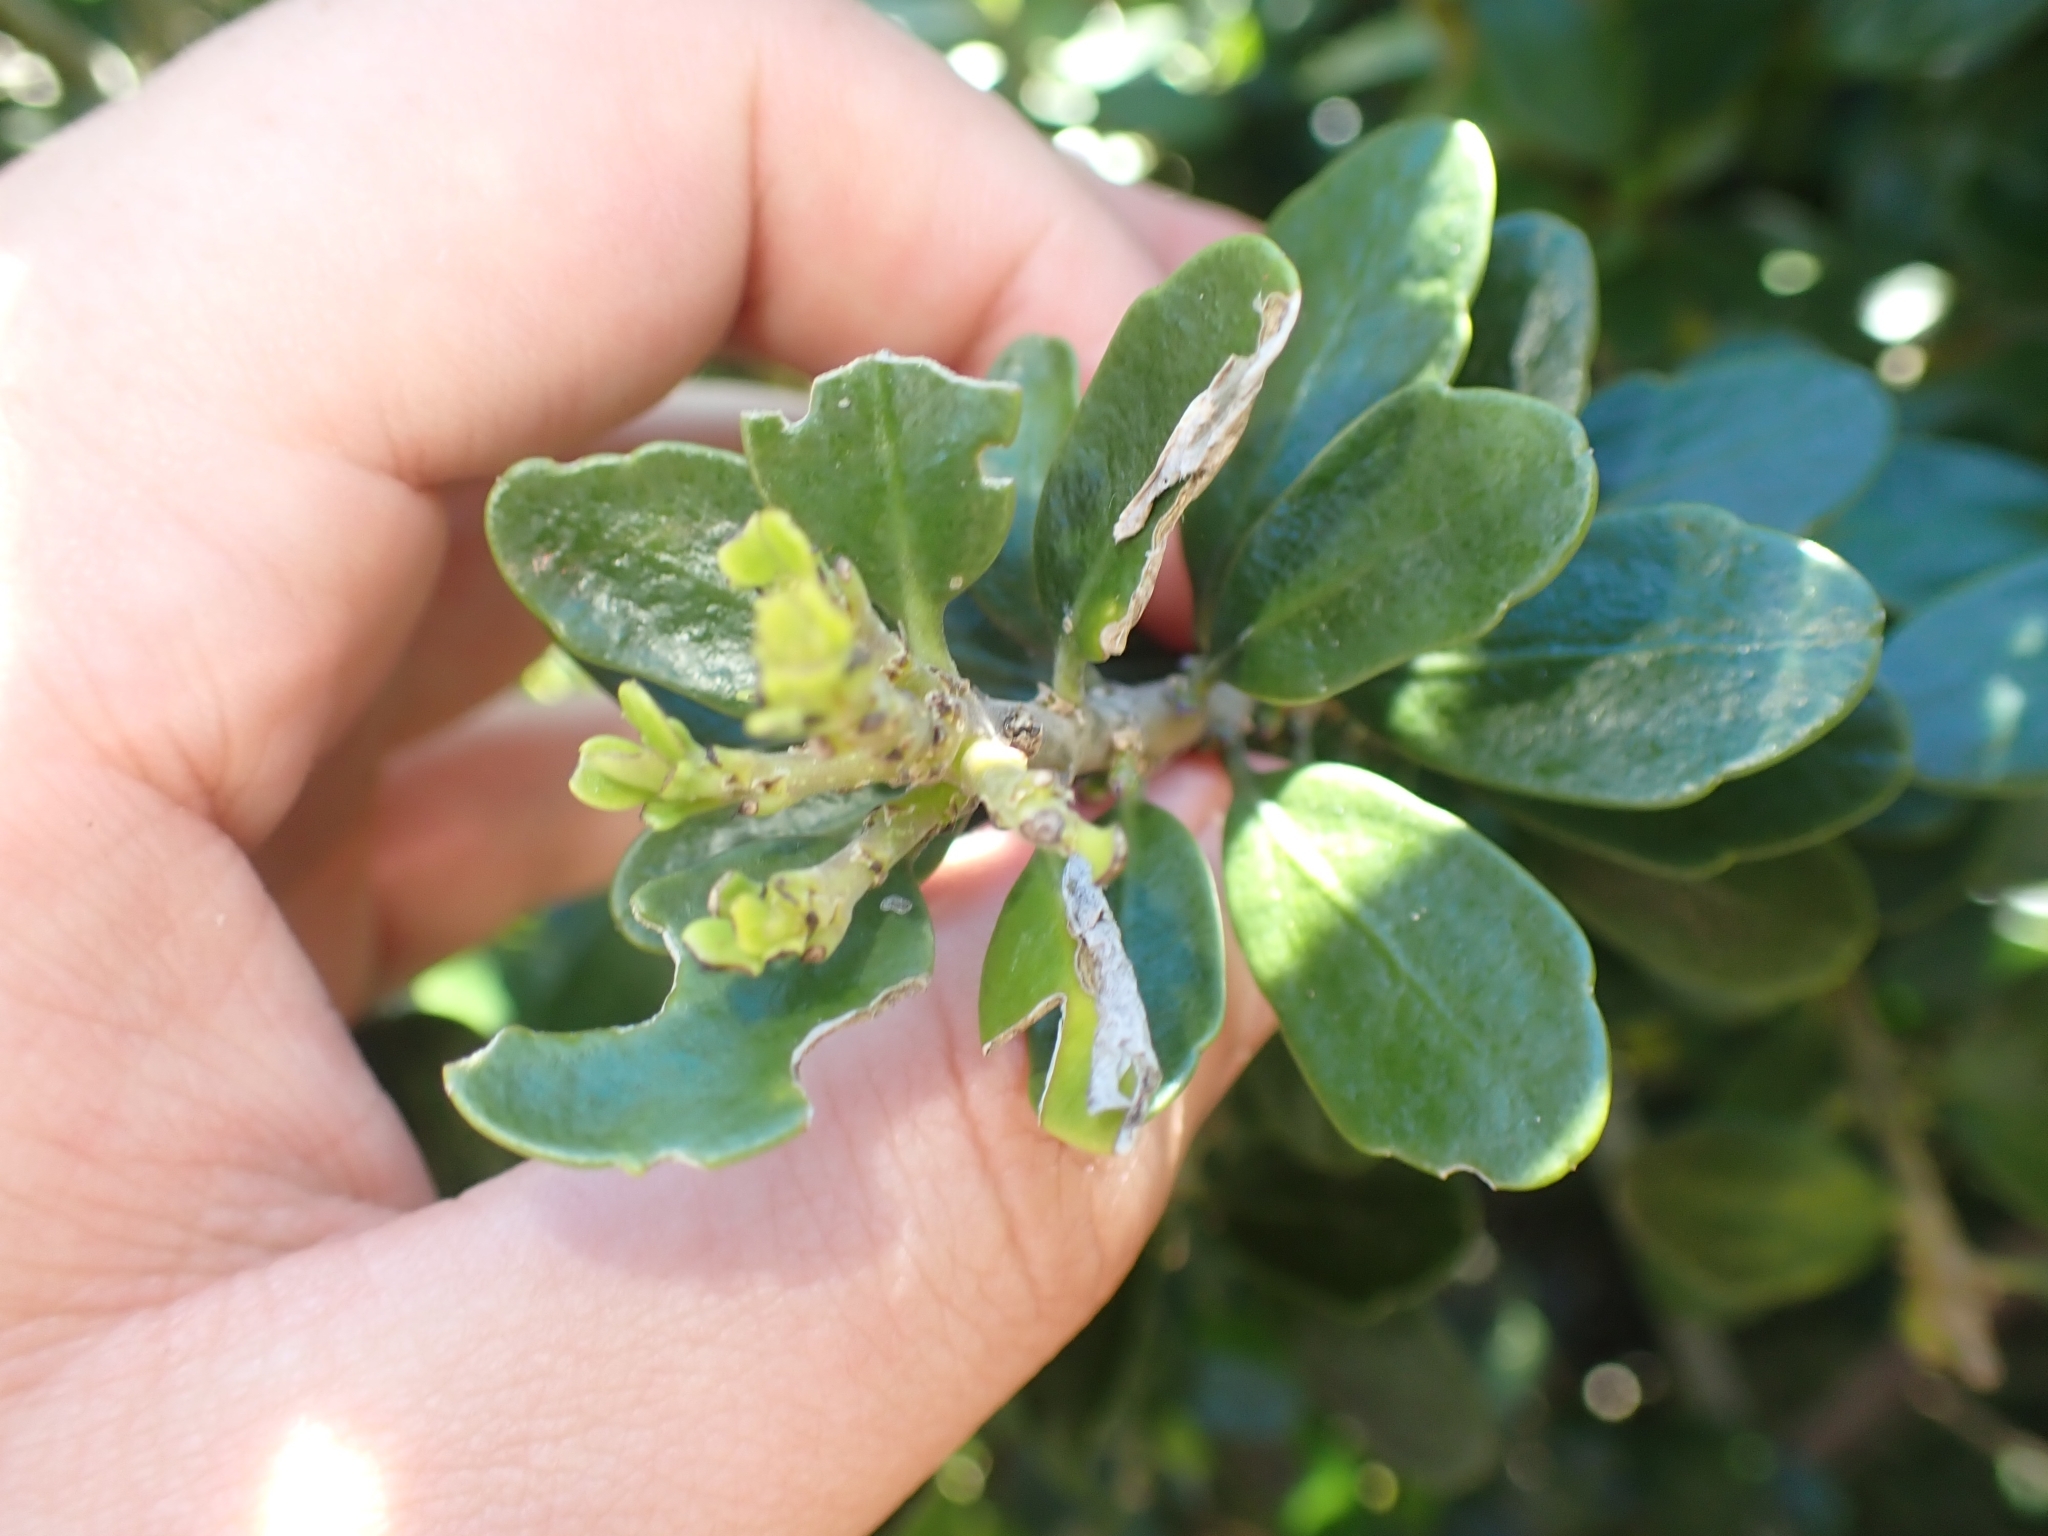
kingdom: Plantae
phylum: Tracheophyta
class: Magnoliopsida
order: Malpighiales
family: Violaceae
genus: Melicytus
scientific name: Melicytus orarius
